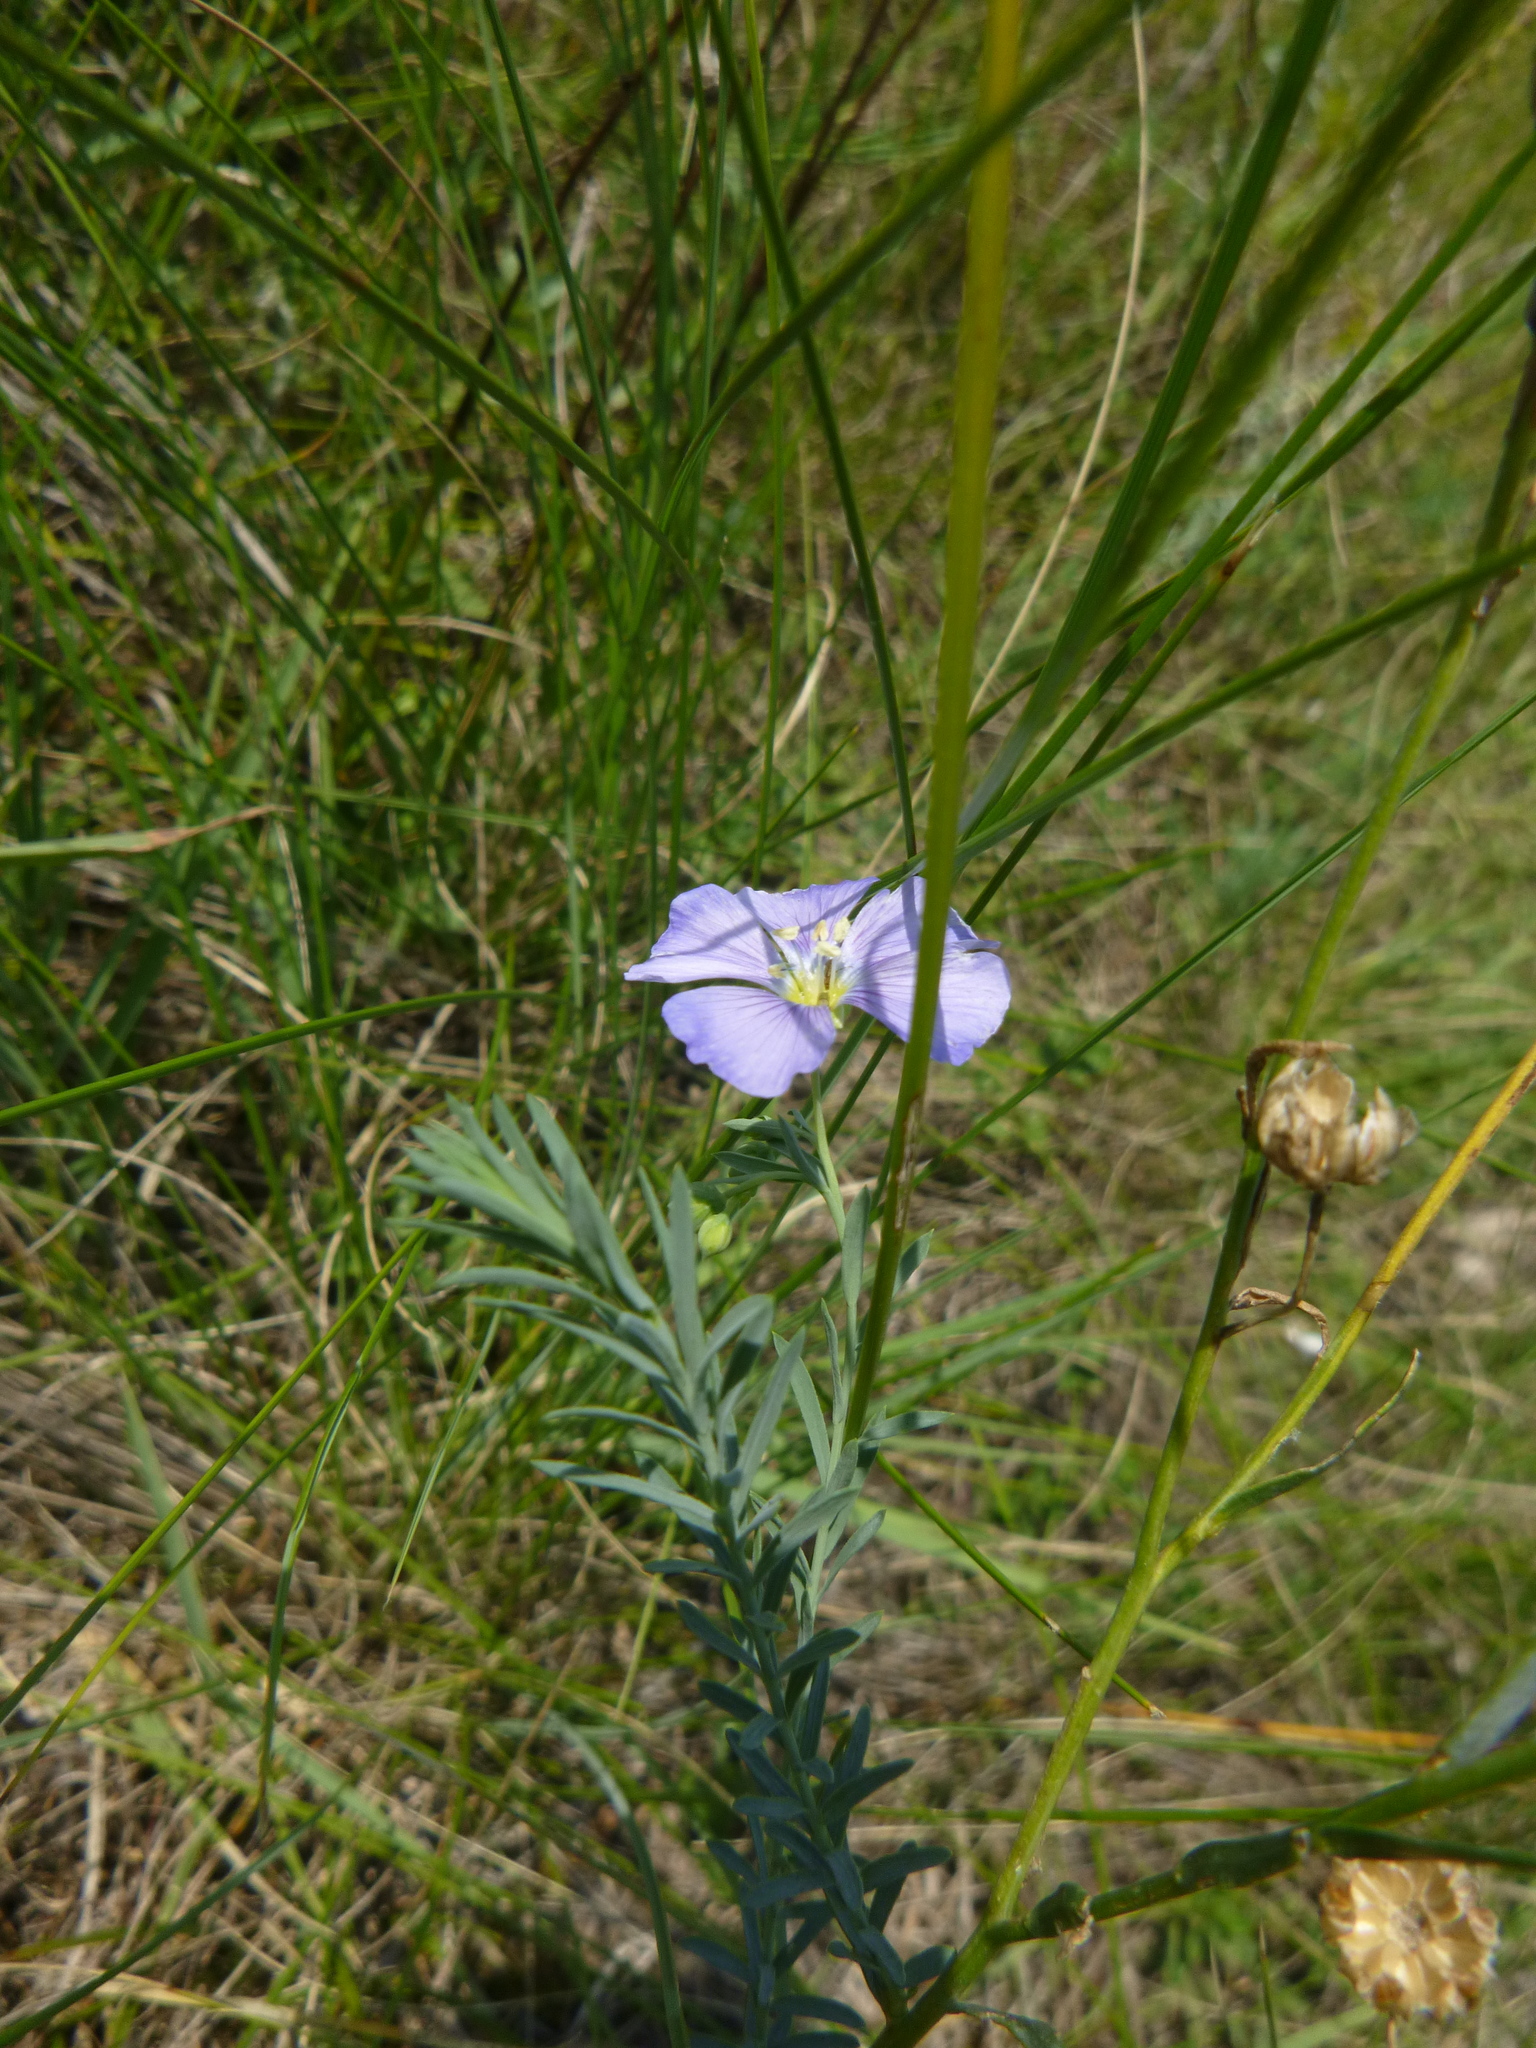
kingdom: Plantae
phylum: Tracheophyta
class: Magnoliopsida
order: Malpighiales
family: Linaceae
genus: Linum
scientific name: Linum austriacum
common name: Austrian flax
